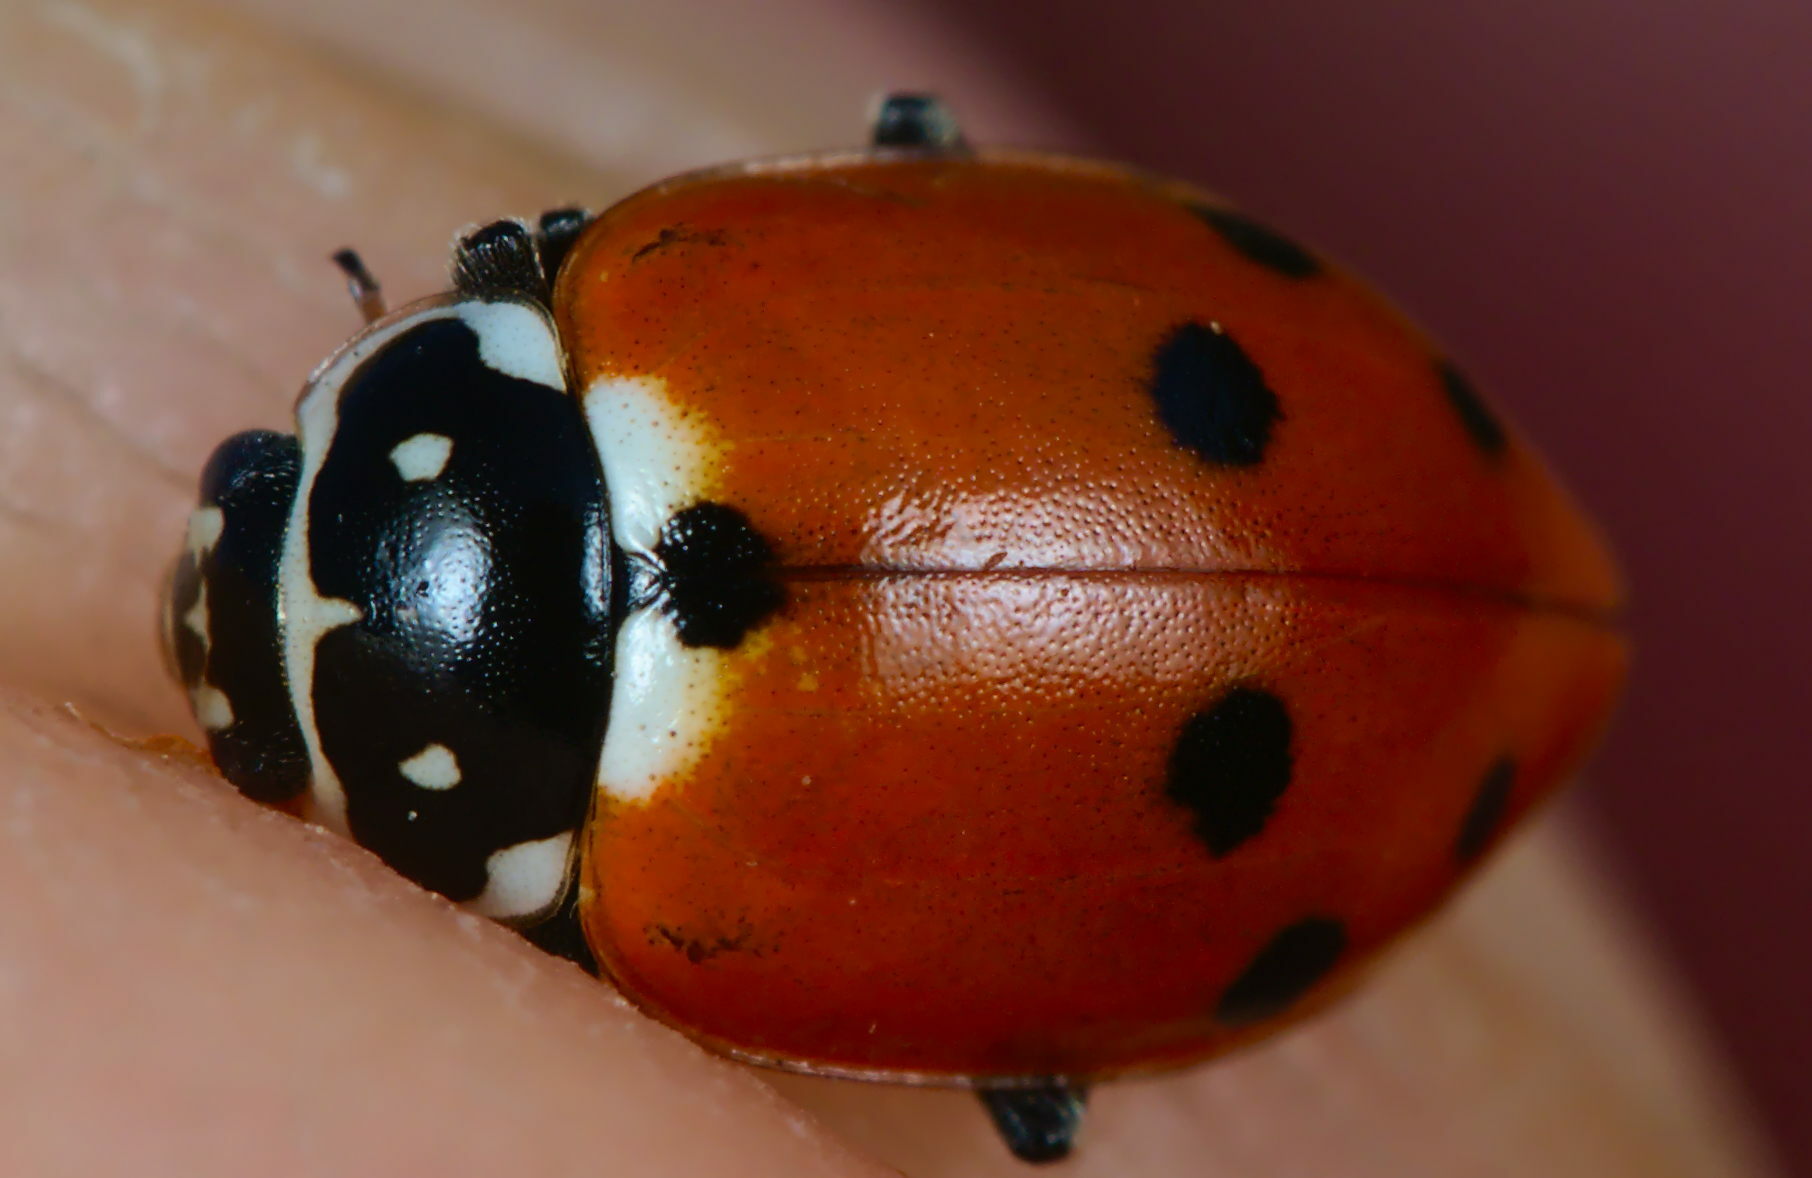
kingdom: Animalia
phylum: Arthropoda
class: Insecta
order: Coleoptera
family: Coccinellidae
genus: Hippodamia
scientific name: Hippodamia variegata
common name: Ladybird beetle
